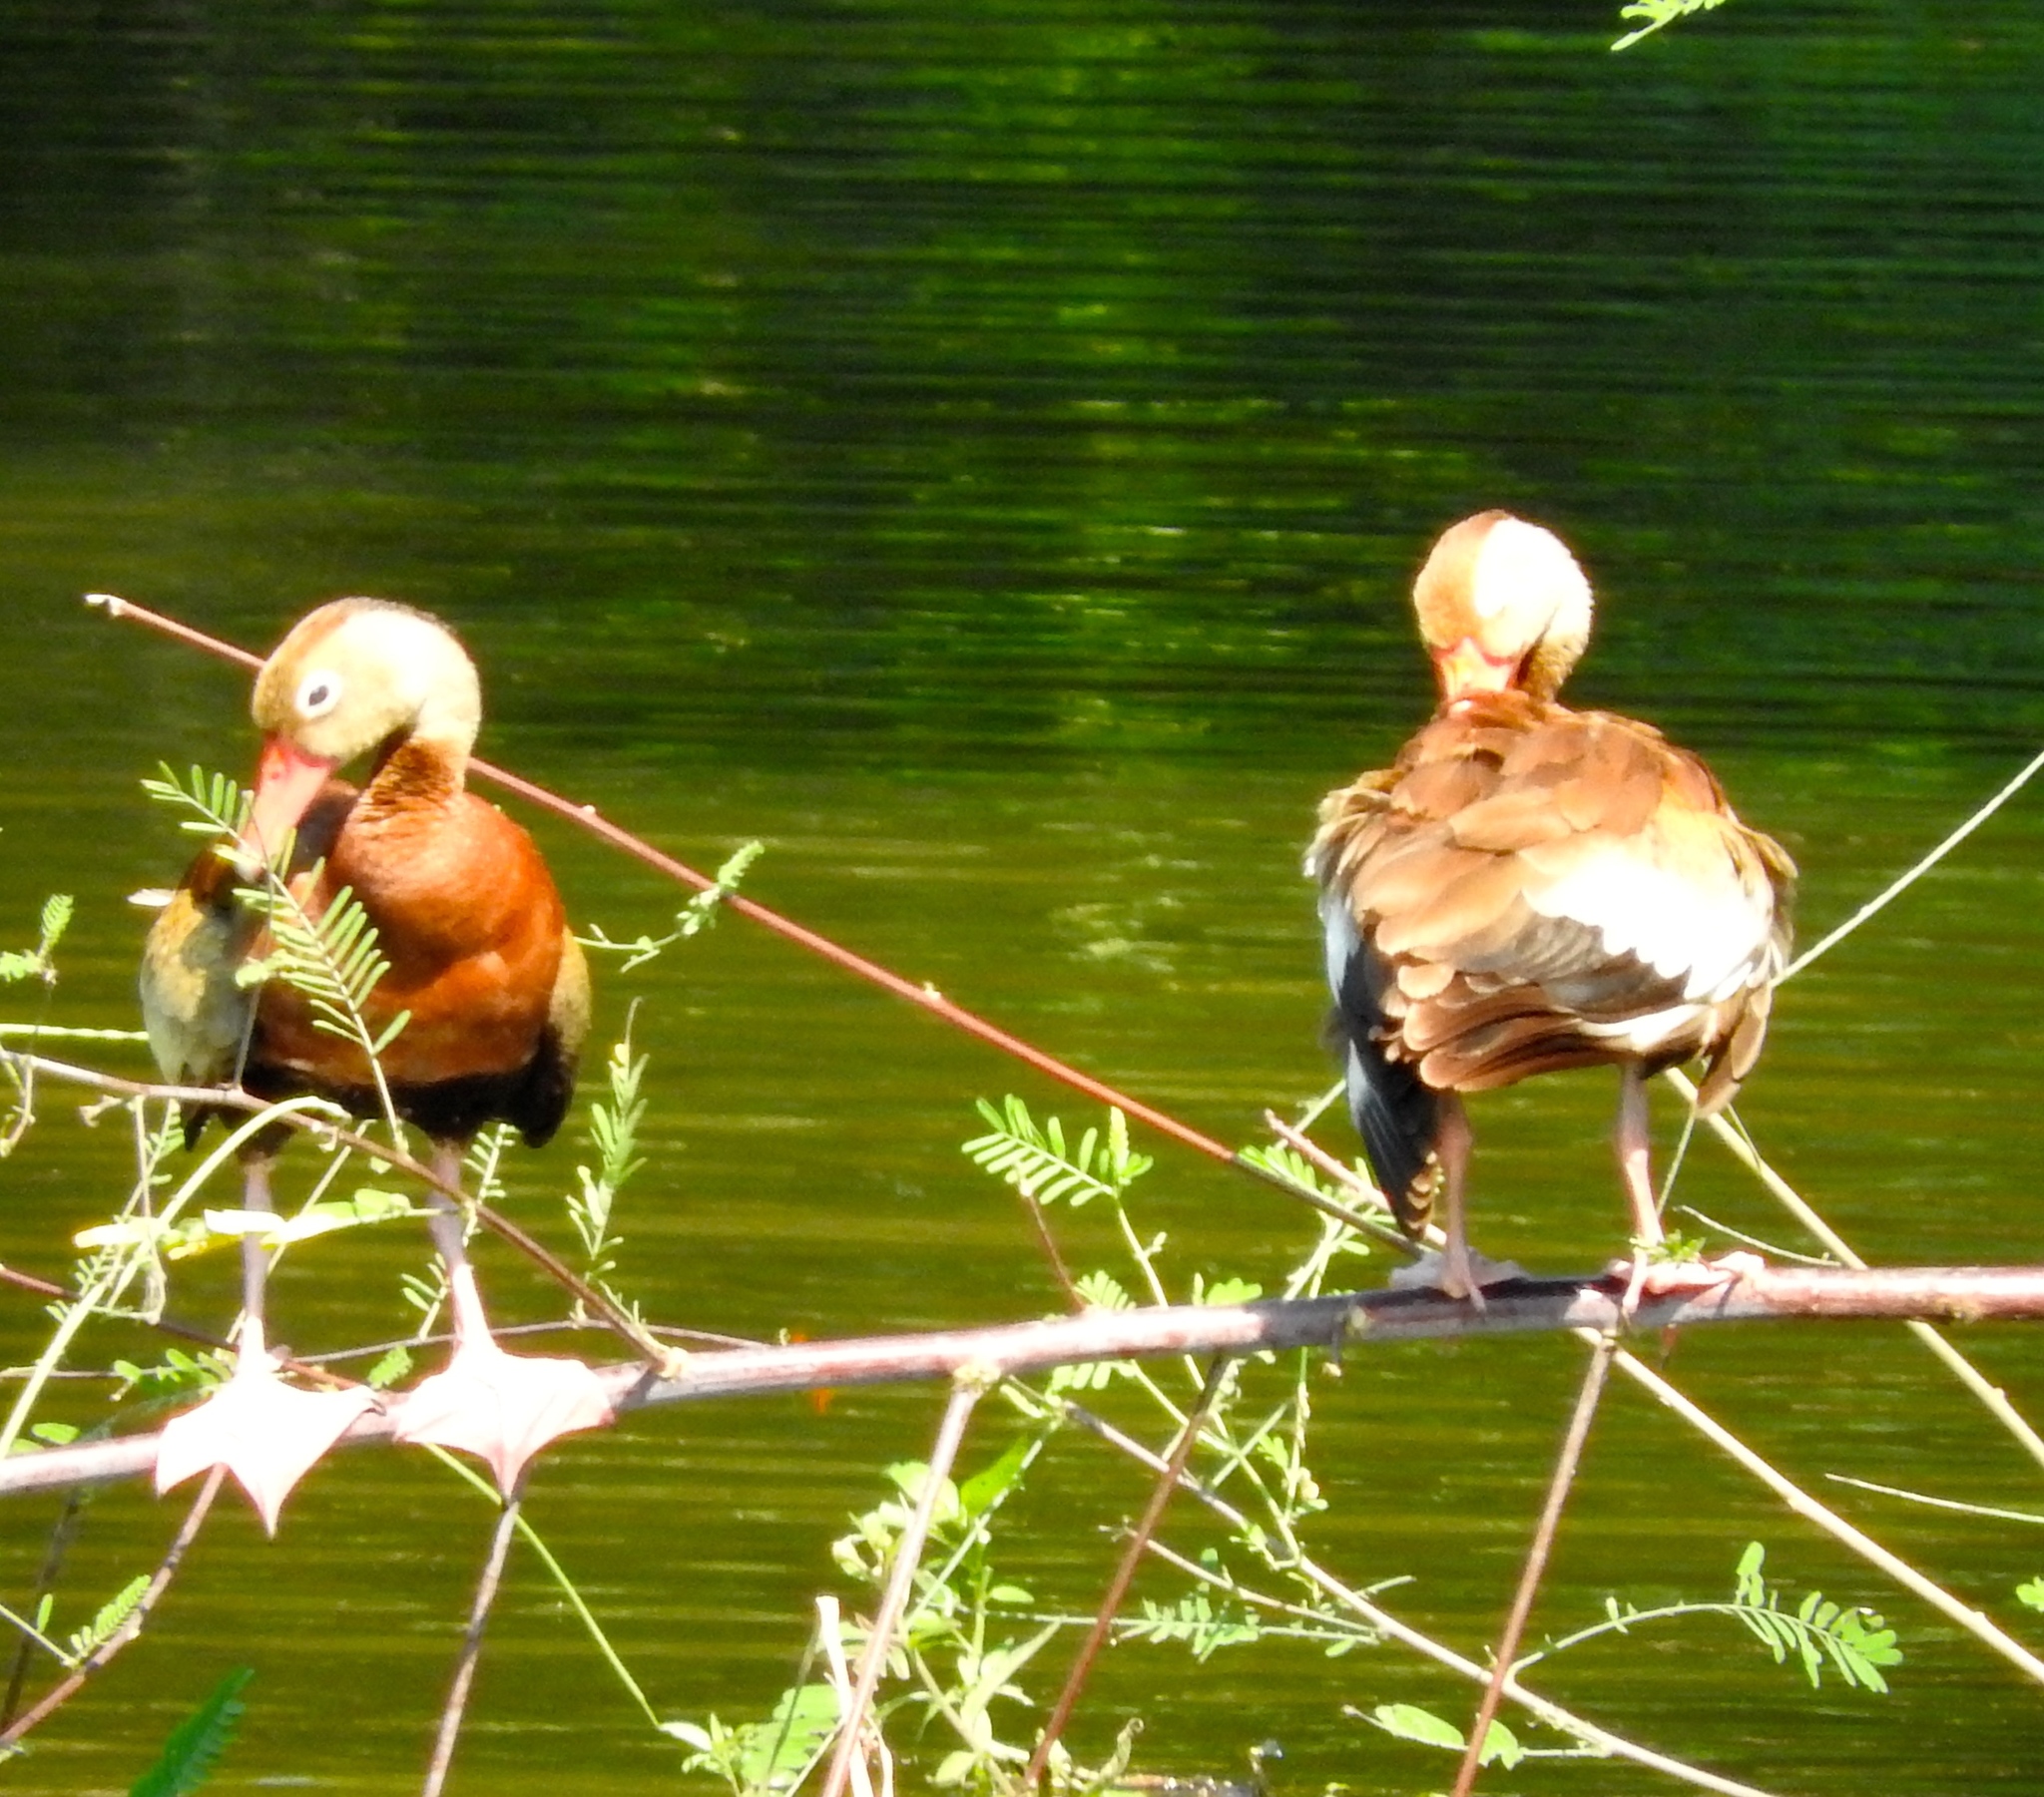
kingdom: Animalia
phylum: Chordata
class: Aves
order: Anseriformes
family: Anatidae
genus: Dendrocygna
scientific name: Dendrocygna autumnalis
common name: Black-bellied whistling duck
